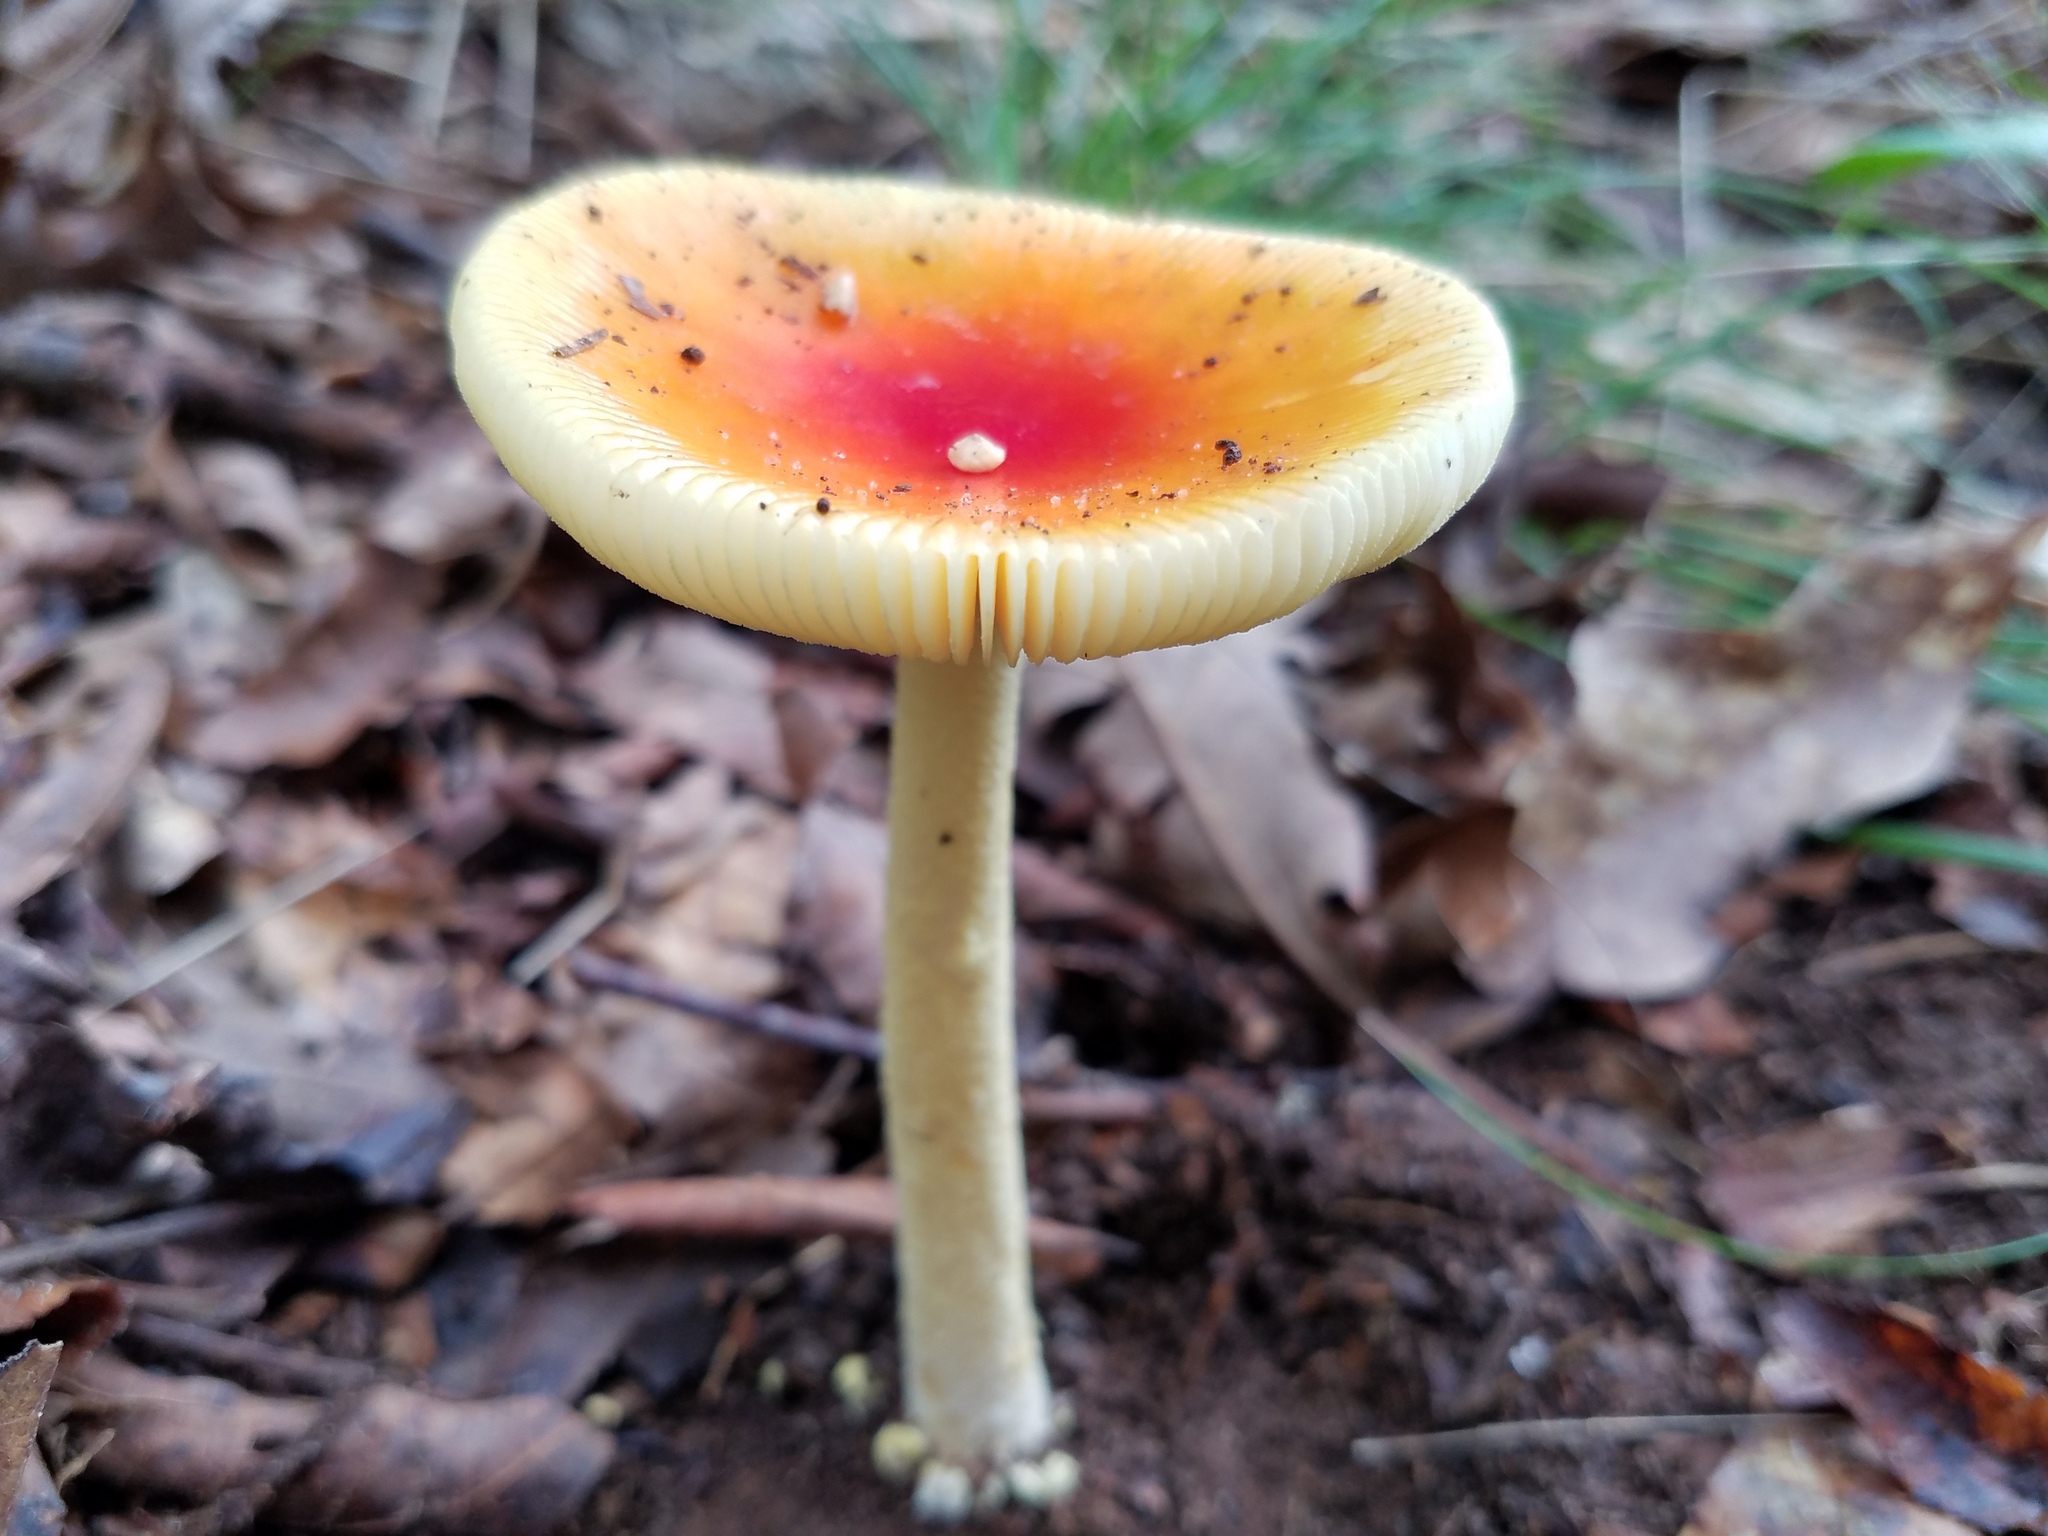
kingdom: Fungi
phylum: Basidiomycota
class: Agaricomycetes
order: Agaricales
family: Amanitaceae
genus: Amanita
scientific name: Amanita parcivolvata
